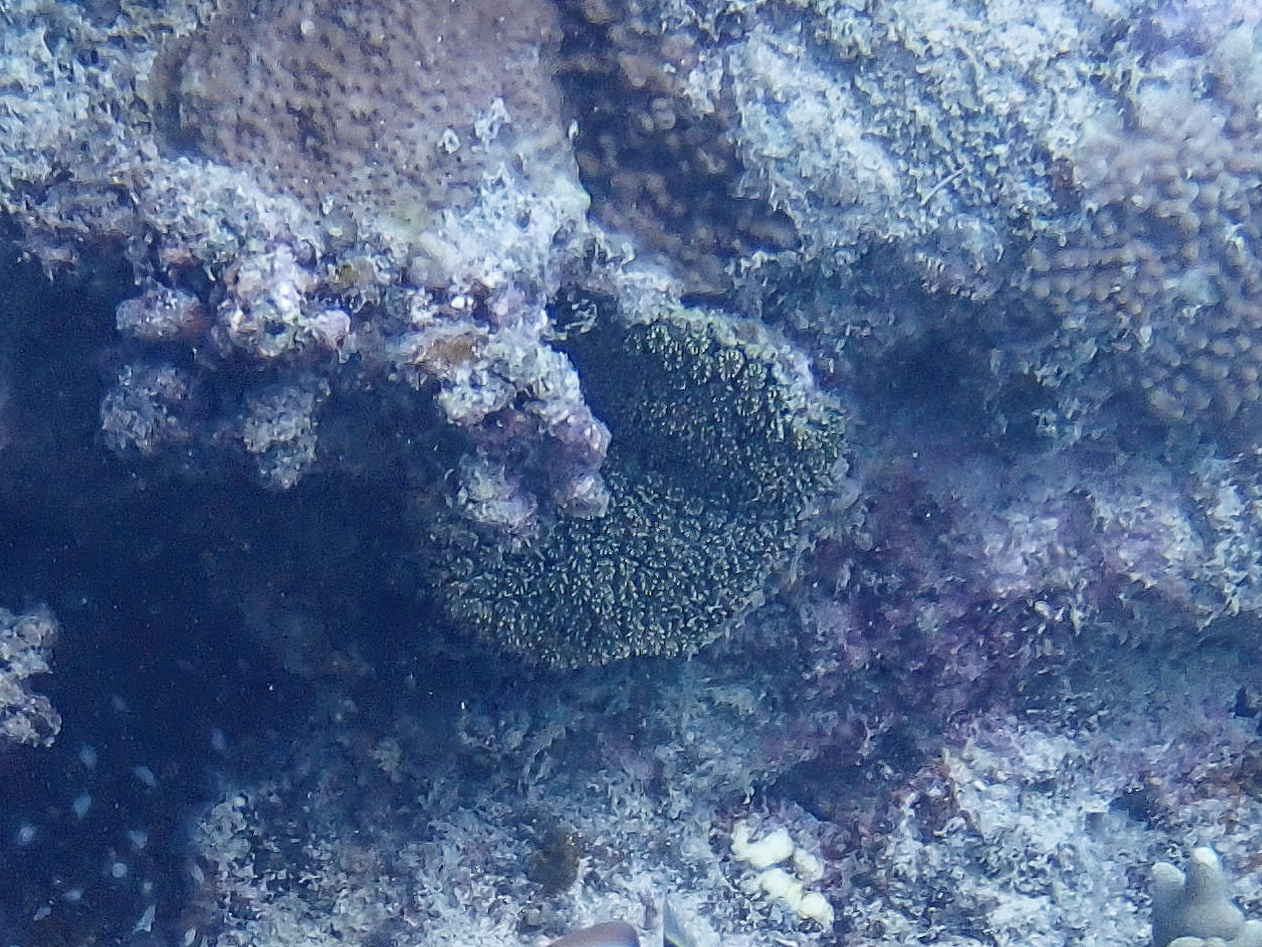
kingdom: Animalia
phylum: Cnidaria
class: Anthozoa
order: Scleractinia
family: Euphylliidae
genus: Galaxea
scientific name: Galaxea fascicularis
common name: Octopus coral
